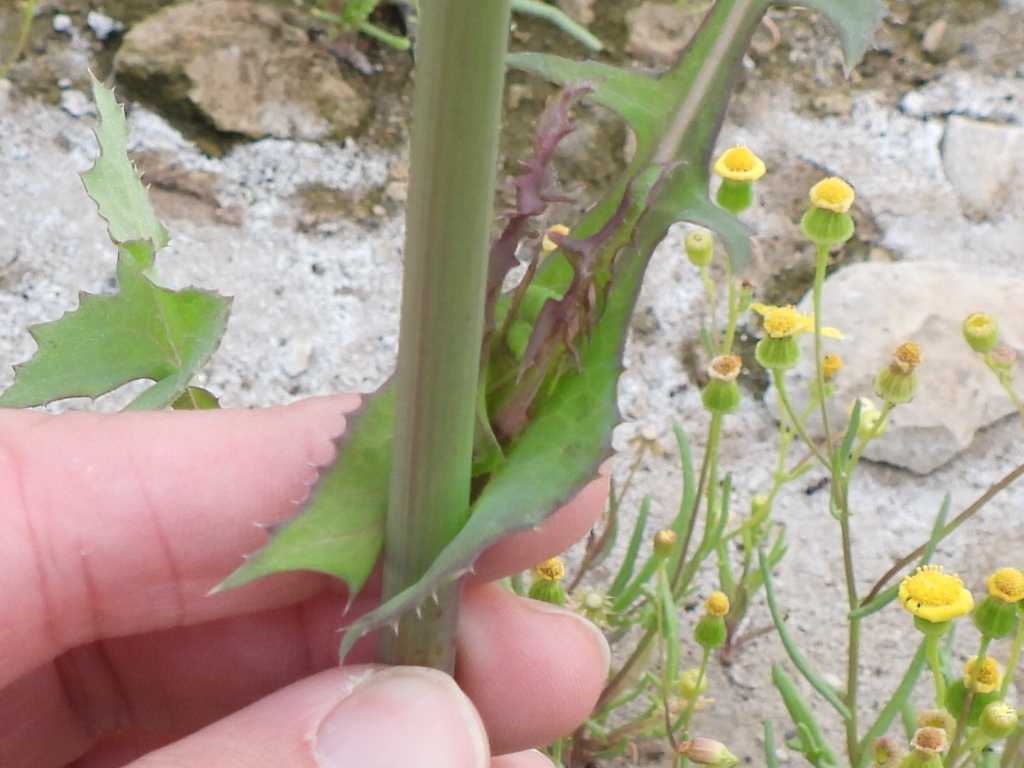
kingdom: Plantae
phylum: Tracheophyta
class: Magnoliopsida
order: Asterales
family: Asteraceae
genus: Sonchus
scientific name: Sonchus oleraceus
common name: Common sowthistle
